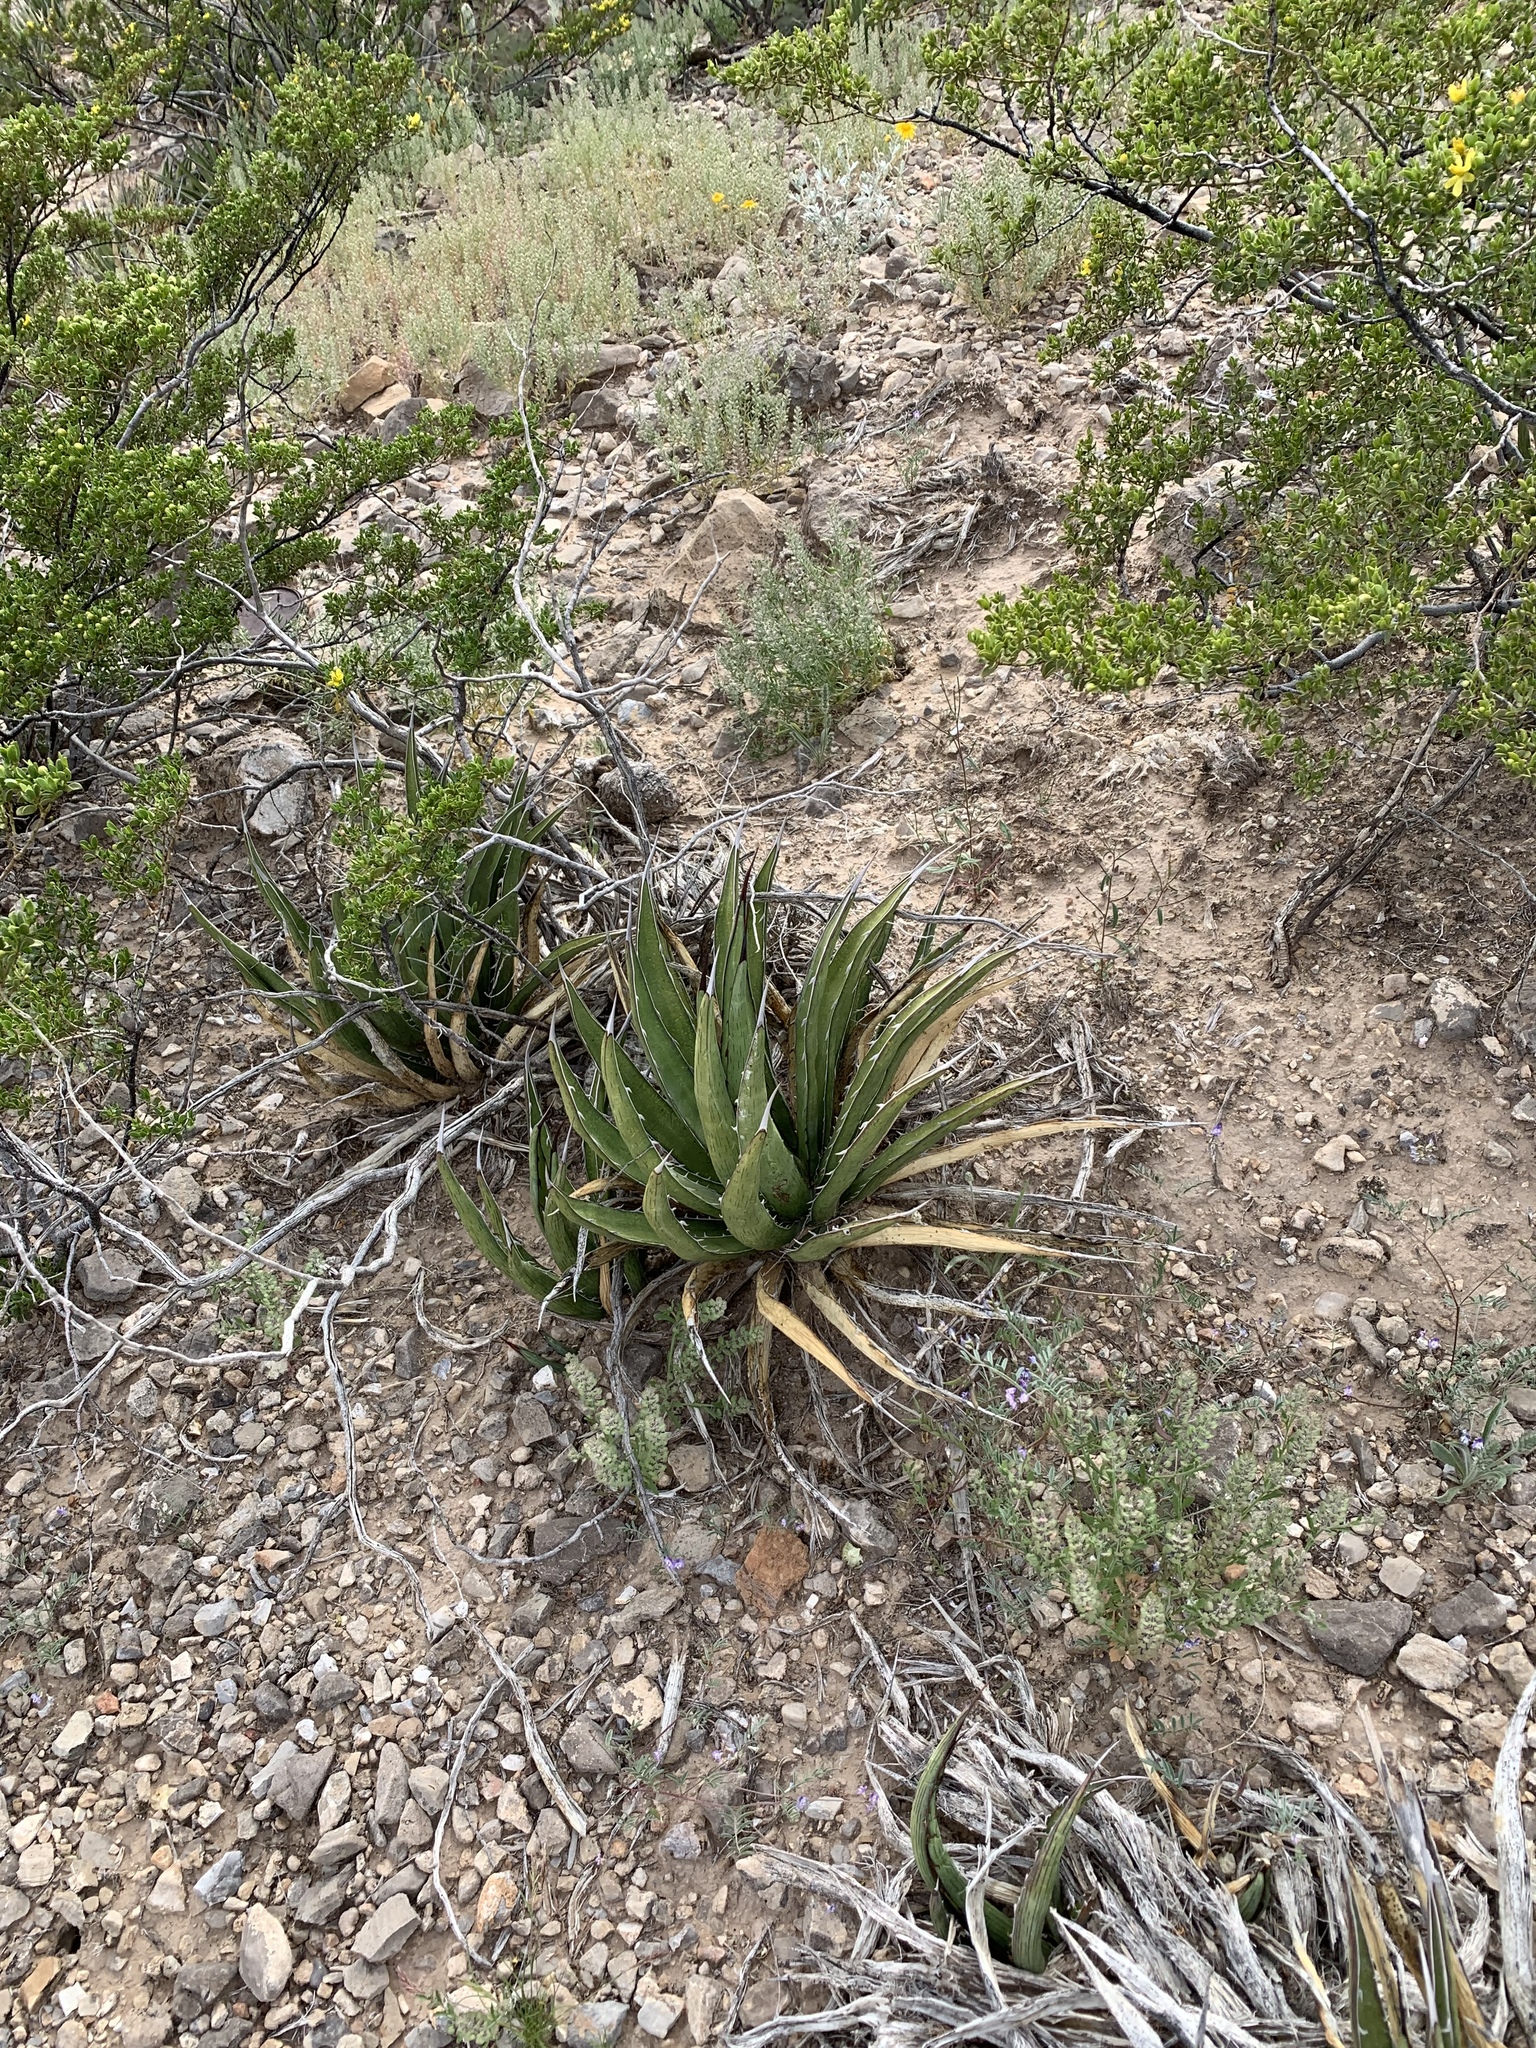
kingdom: Plantae
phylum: Tracheophyta
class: Liliopsida
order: Asparagales
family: Asparagaceae
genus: Agave
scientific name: Agave lechuguilla
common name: Lecheguilla agave
